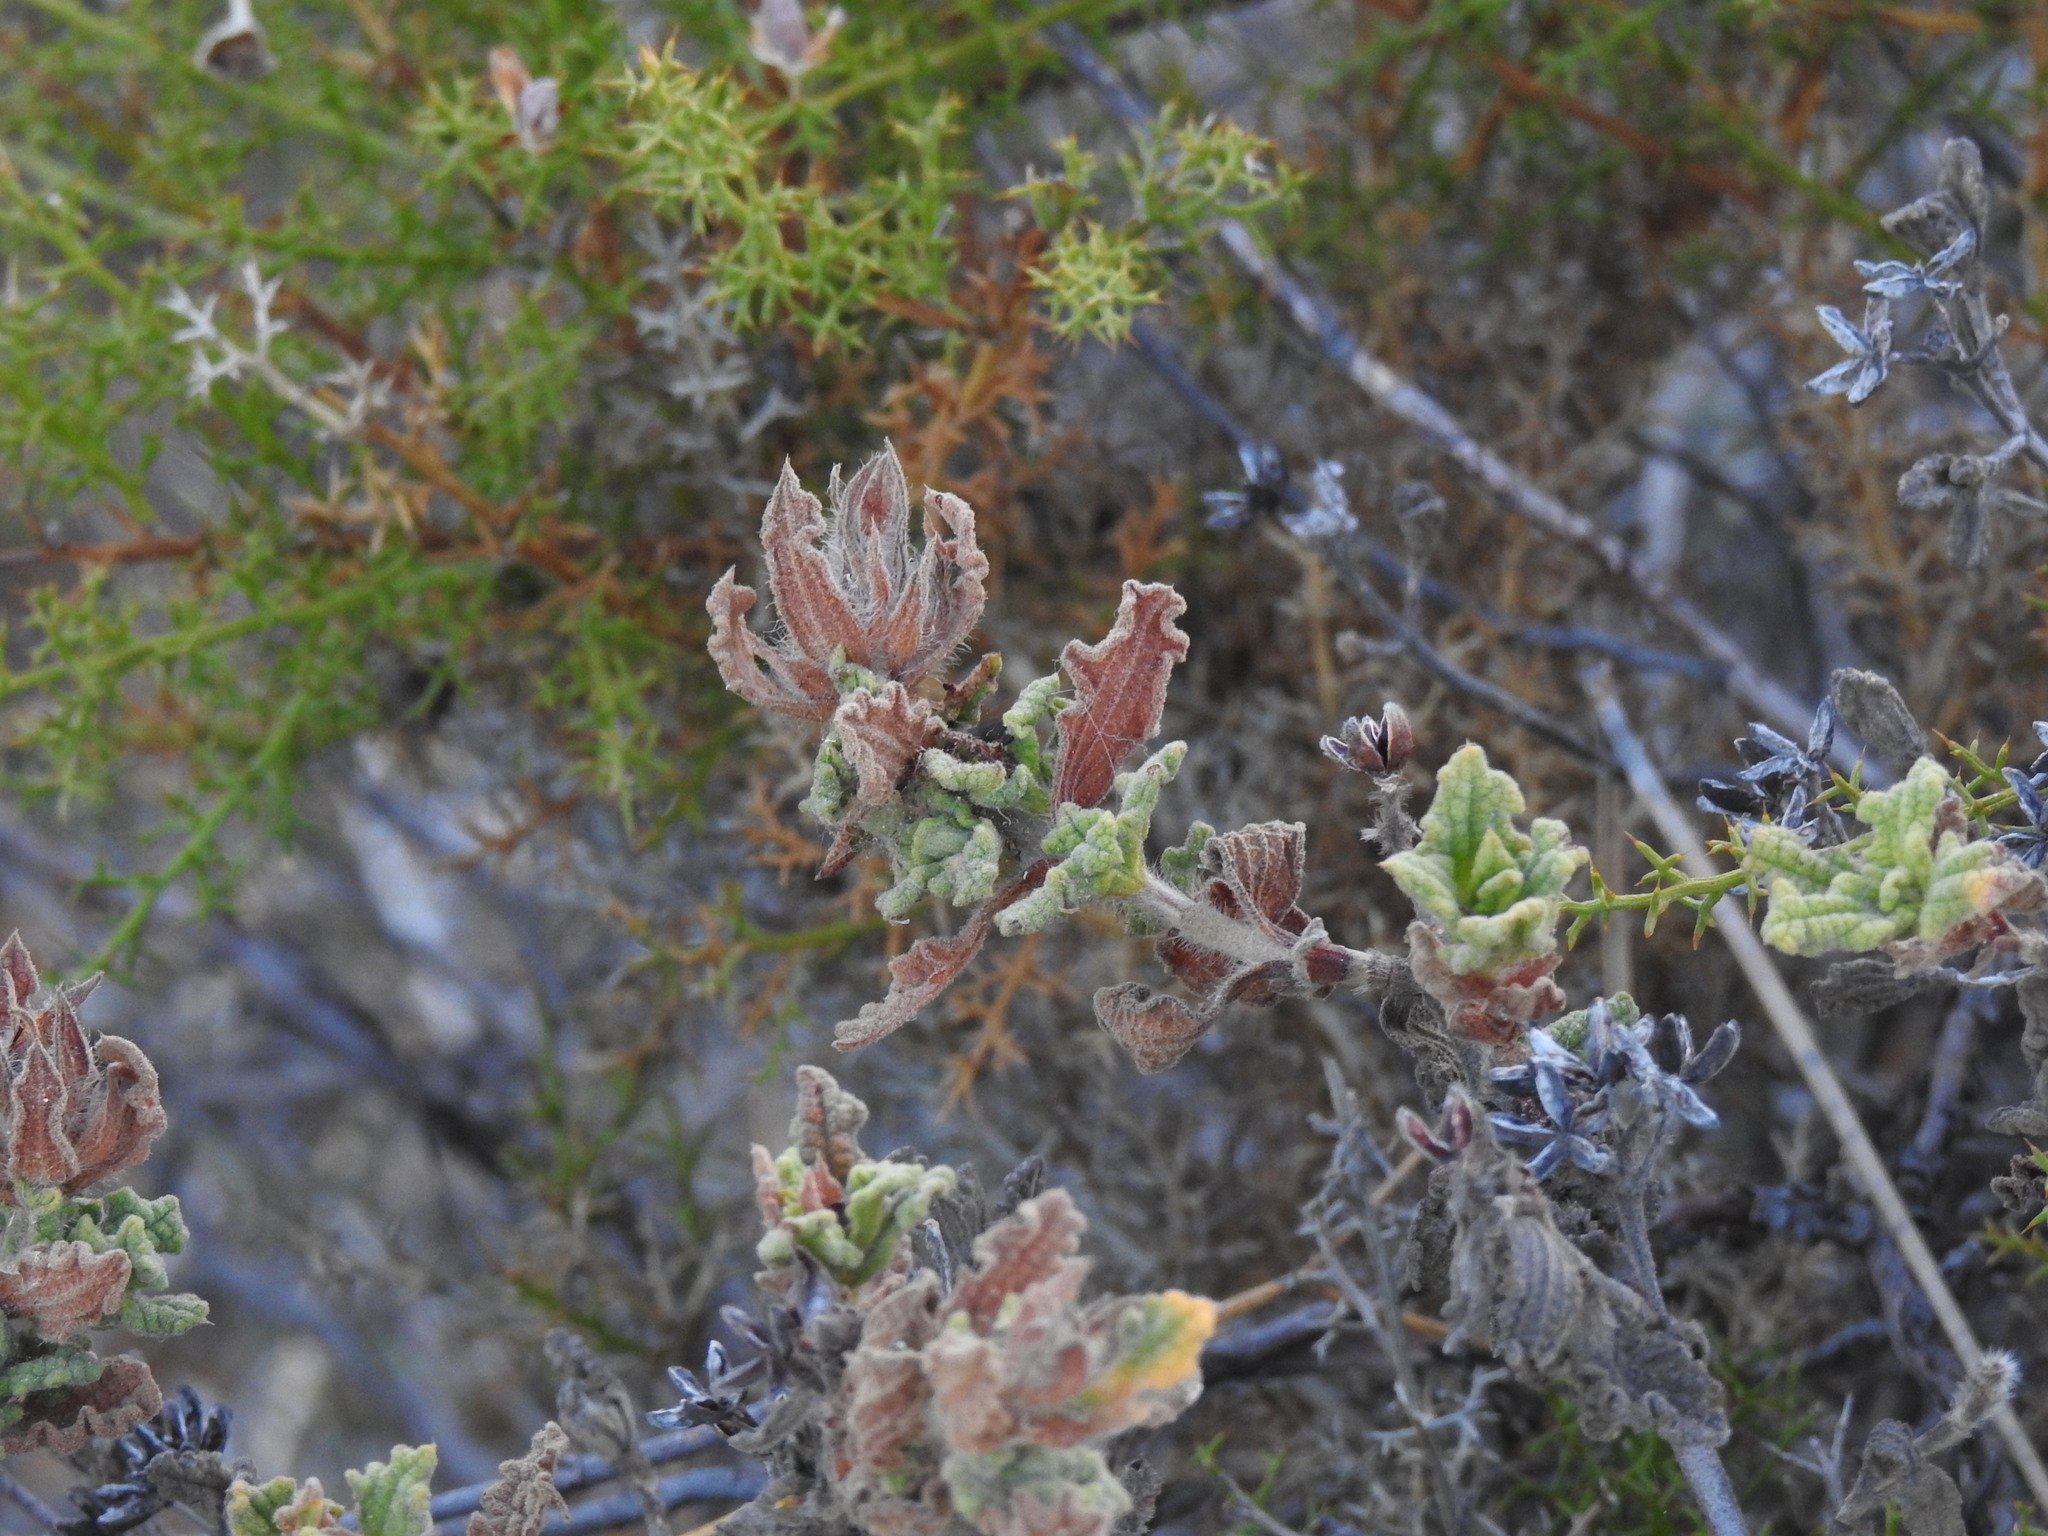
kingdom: Plantae
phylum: Tracheophyta
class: Magnoliopsida
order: Malvales
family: Cistaceae
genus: Cistus
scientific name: Cistus crispus
